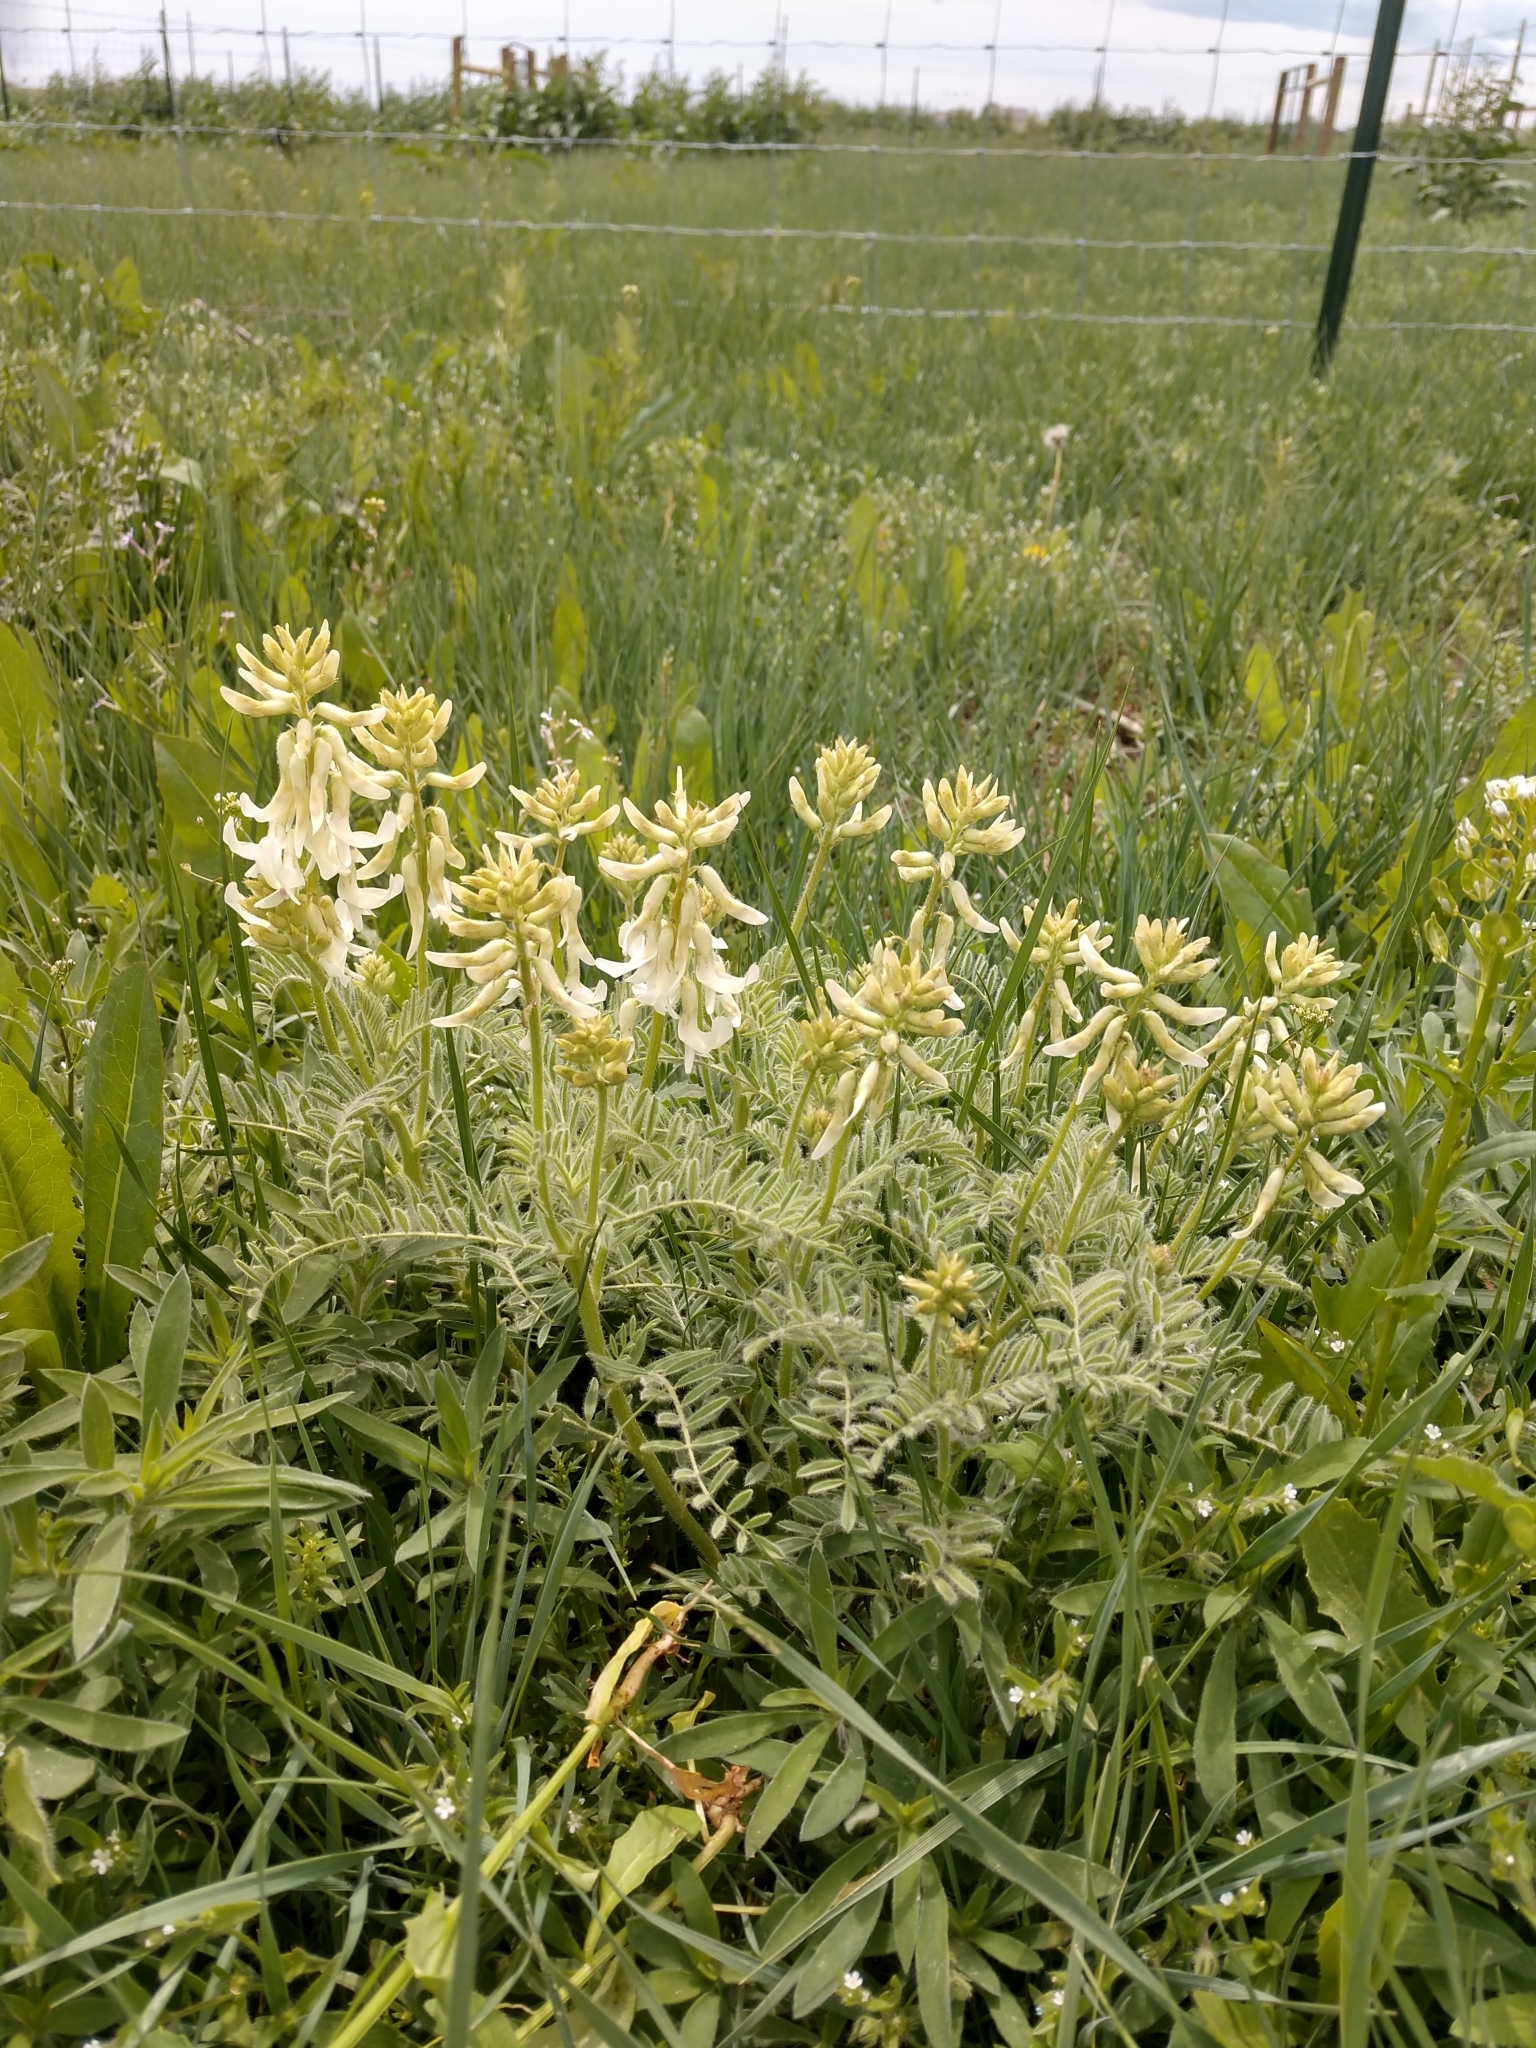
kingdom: Plantae
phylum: Tracheophyta
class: Magnoliopsida
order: Fabales
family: Fabaceae
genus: Astragalus
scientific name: Astragalus drummondii
